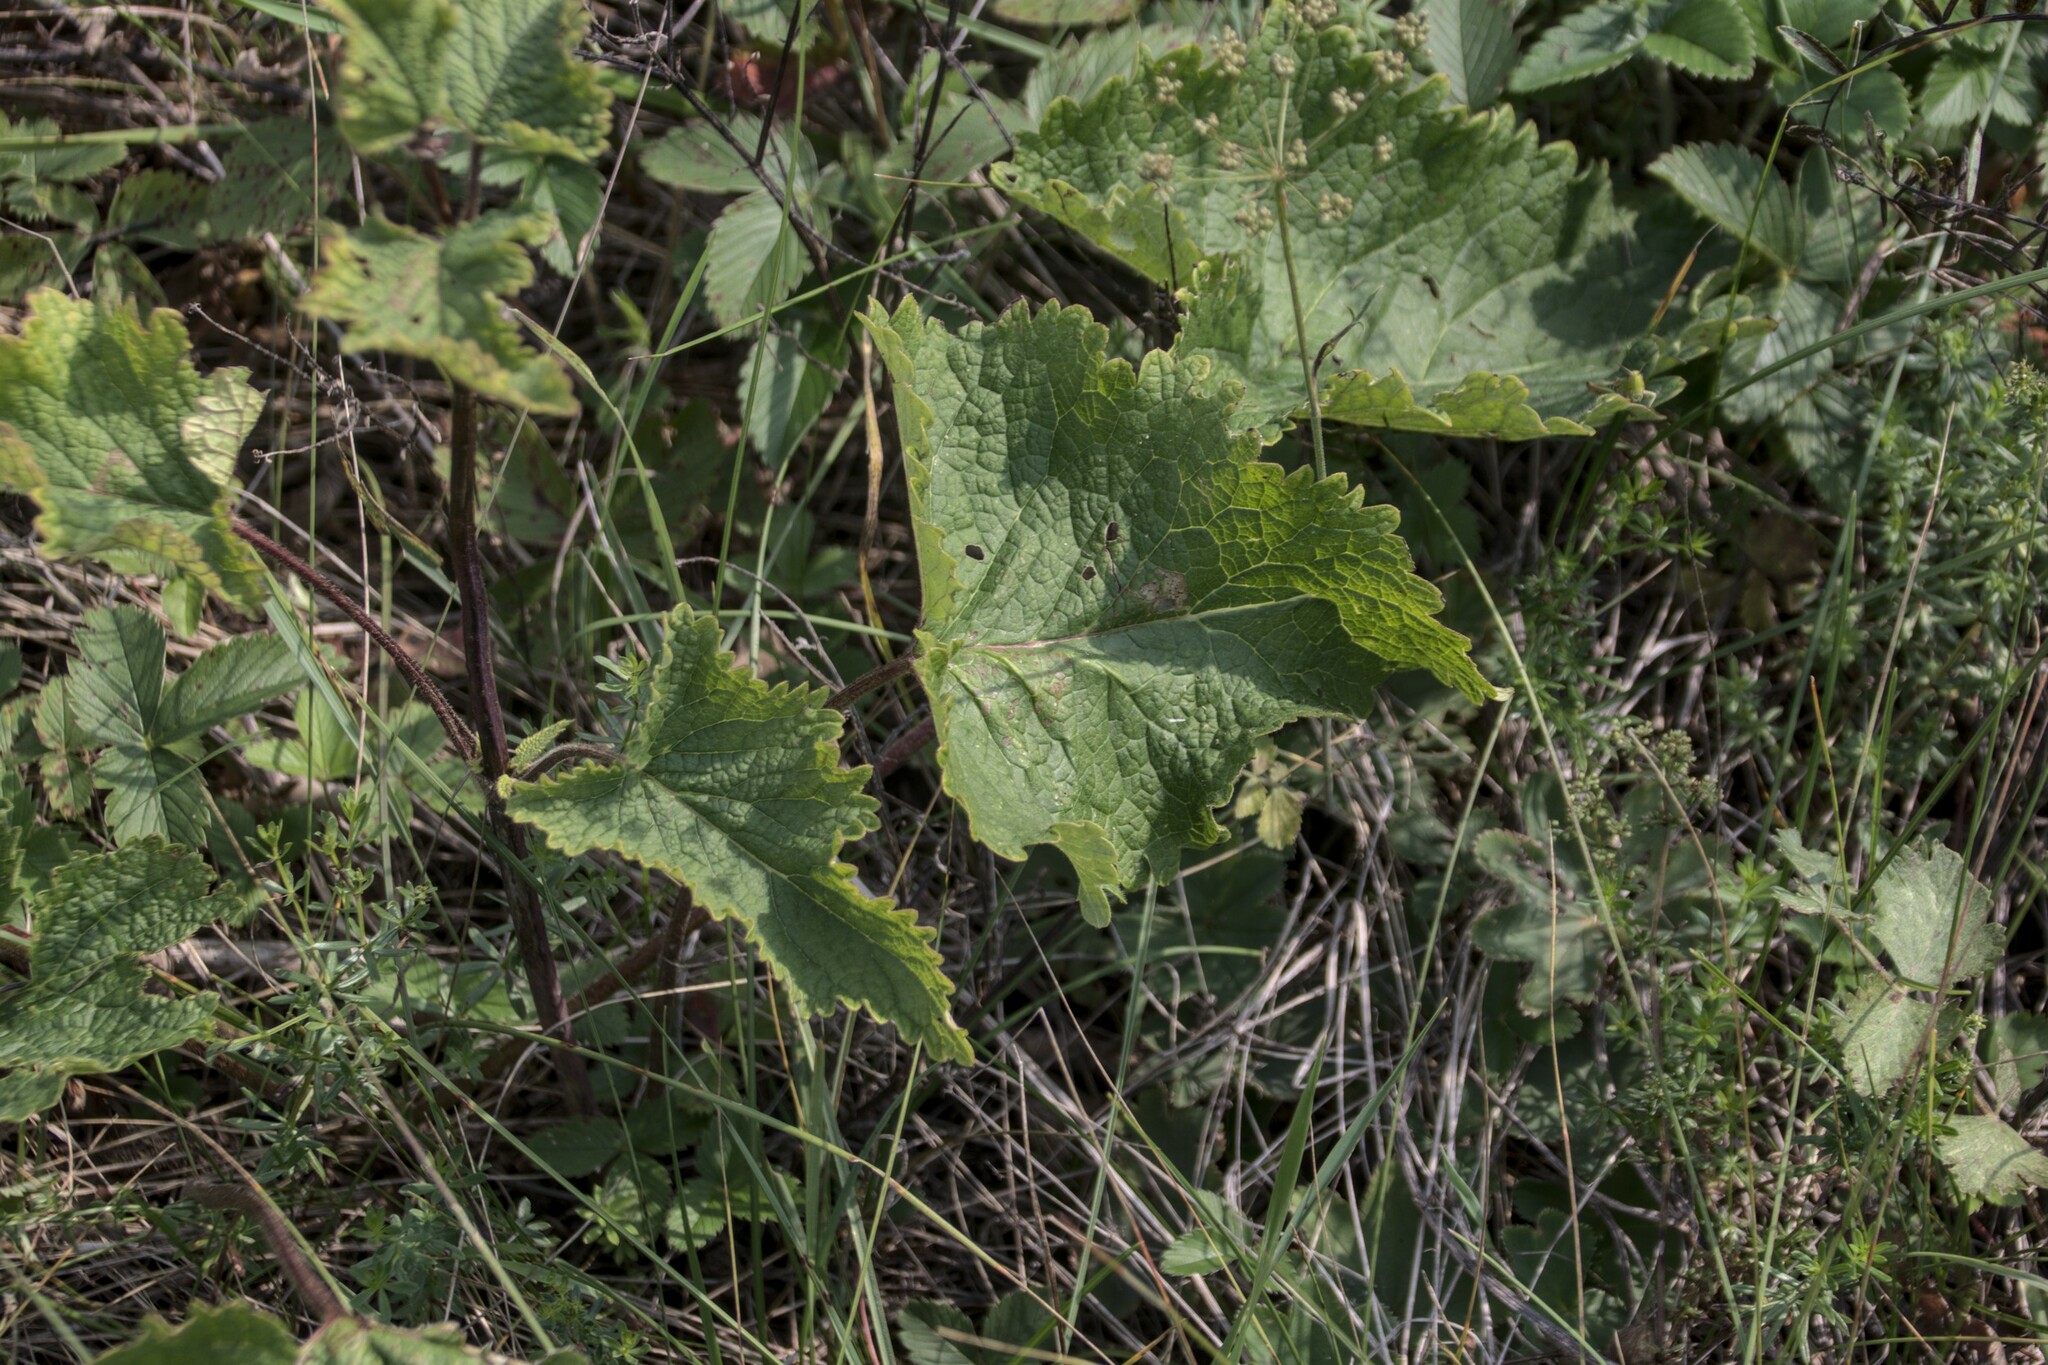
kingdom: Plantae
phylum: Tracheophyta
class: Magnoliopsida
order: Lamiales
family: Lamiaceae
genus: Phlomoides
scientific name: Phlomoides tuberosa
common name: Tuberous jerusalem sage
